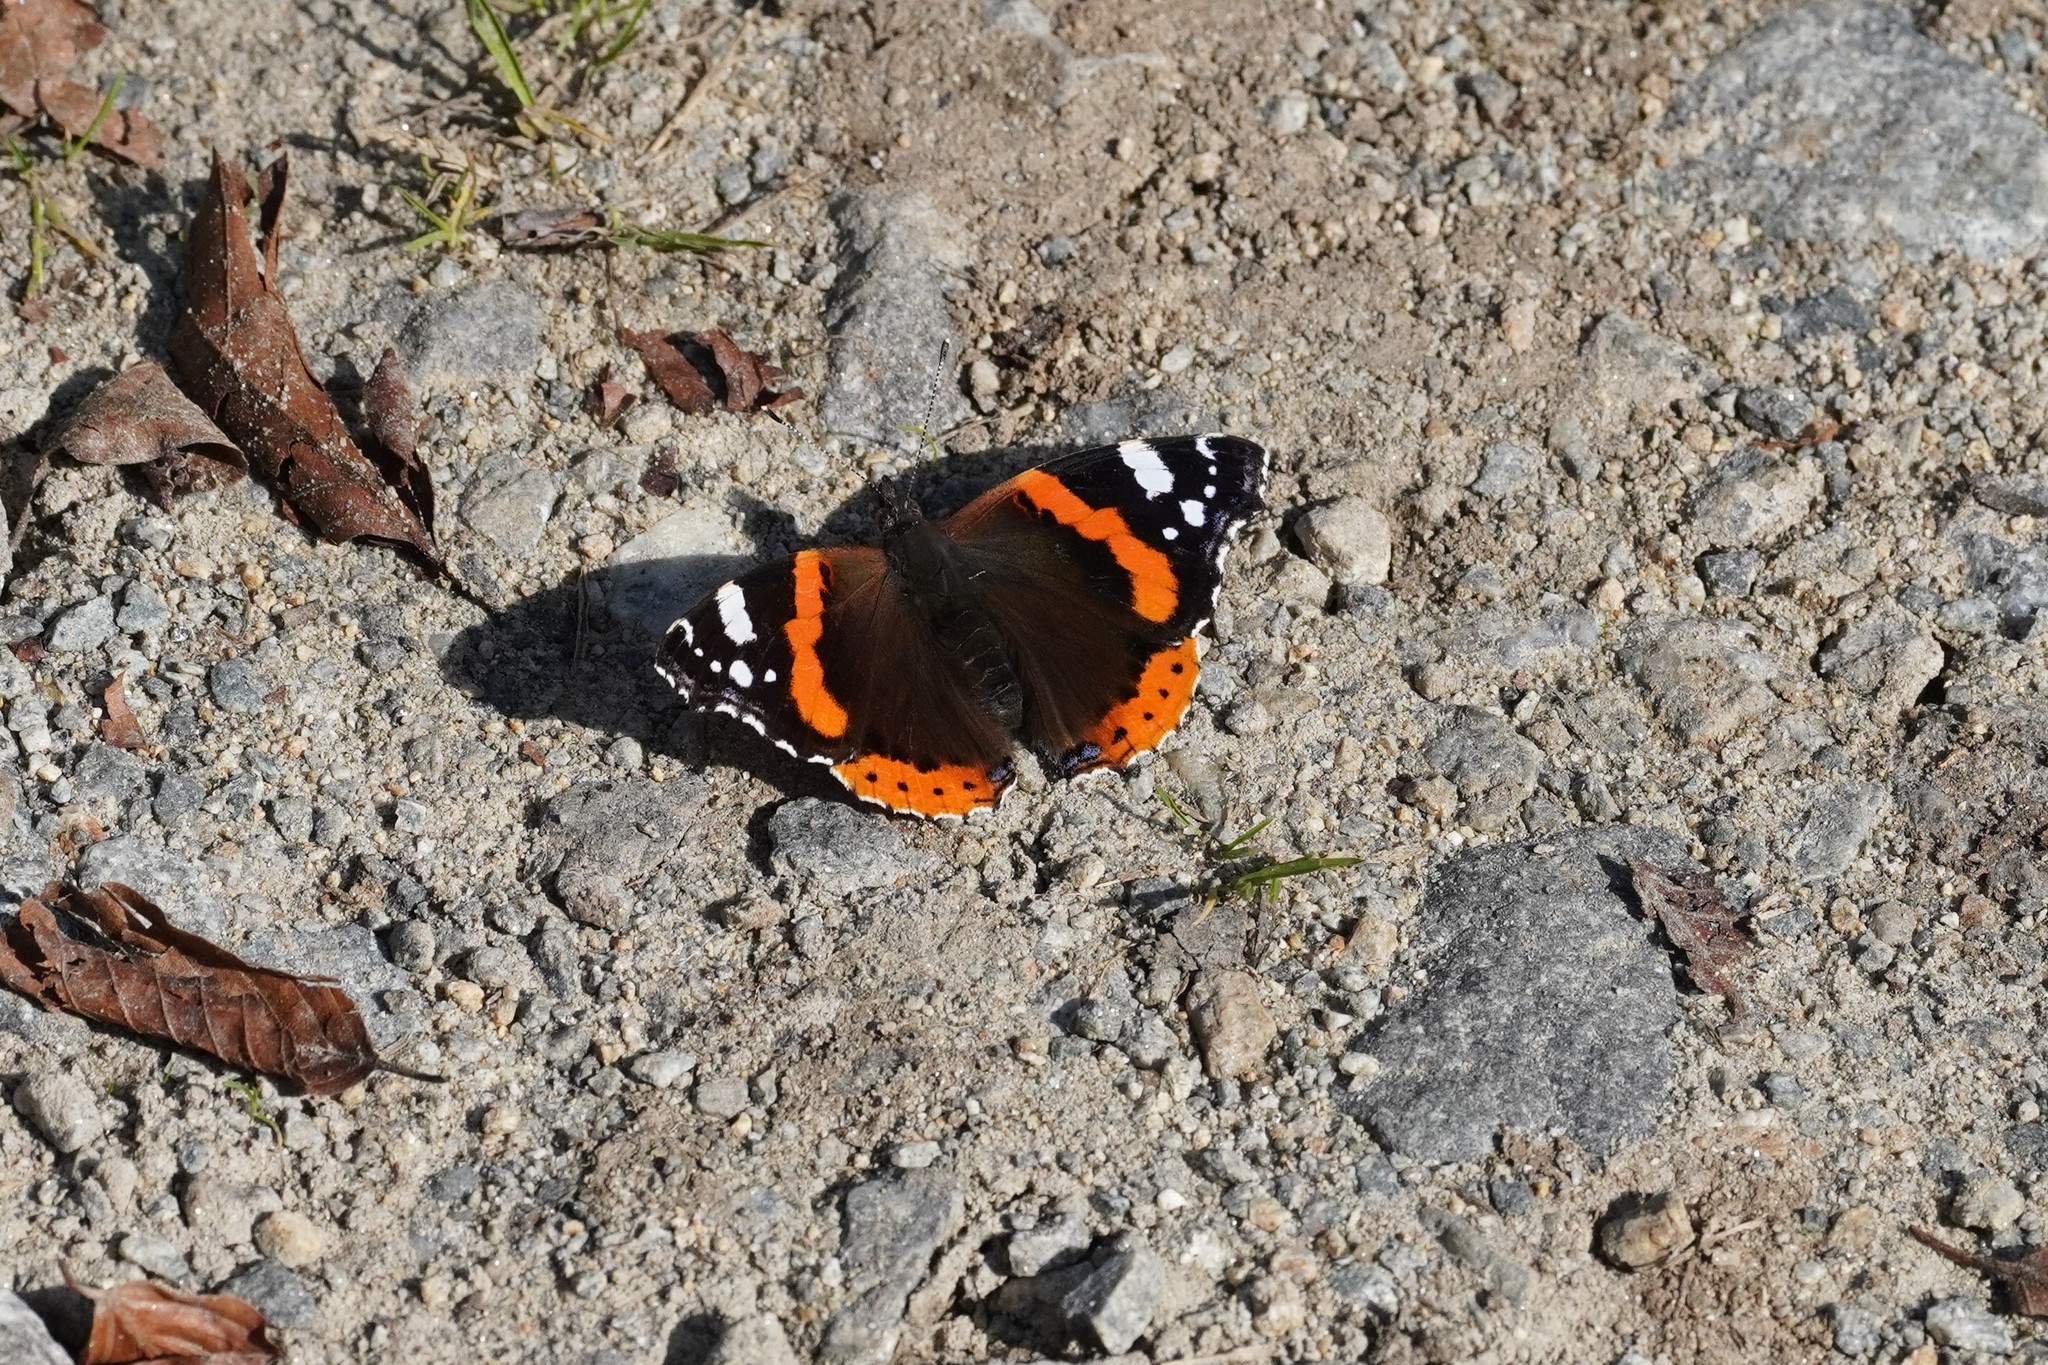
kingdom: Animalia
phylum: Arthropoda
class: Insecta
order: Lepidoptera
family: Nymphalidae
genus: Vanessa
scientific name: Vanessa atalanta
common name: Red admiral
